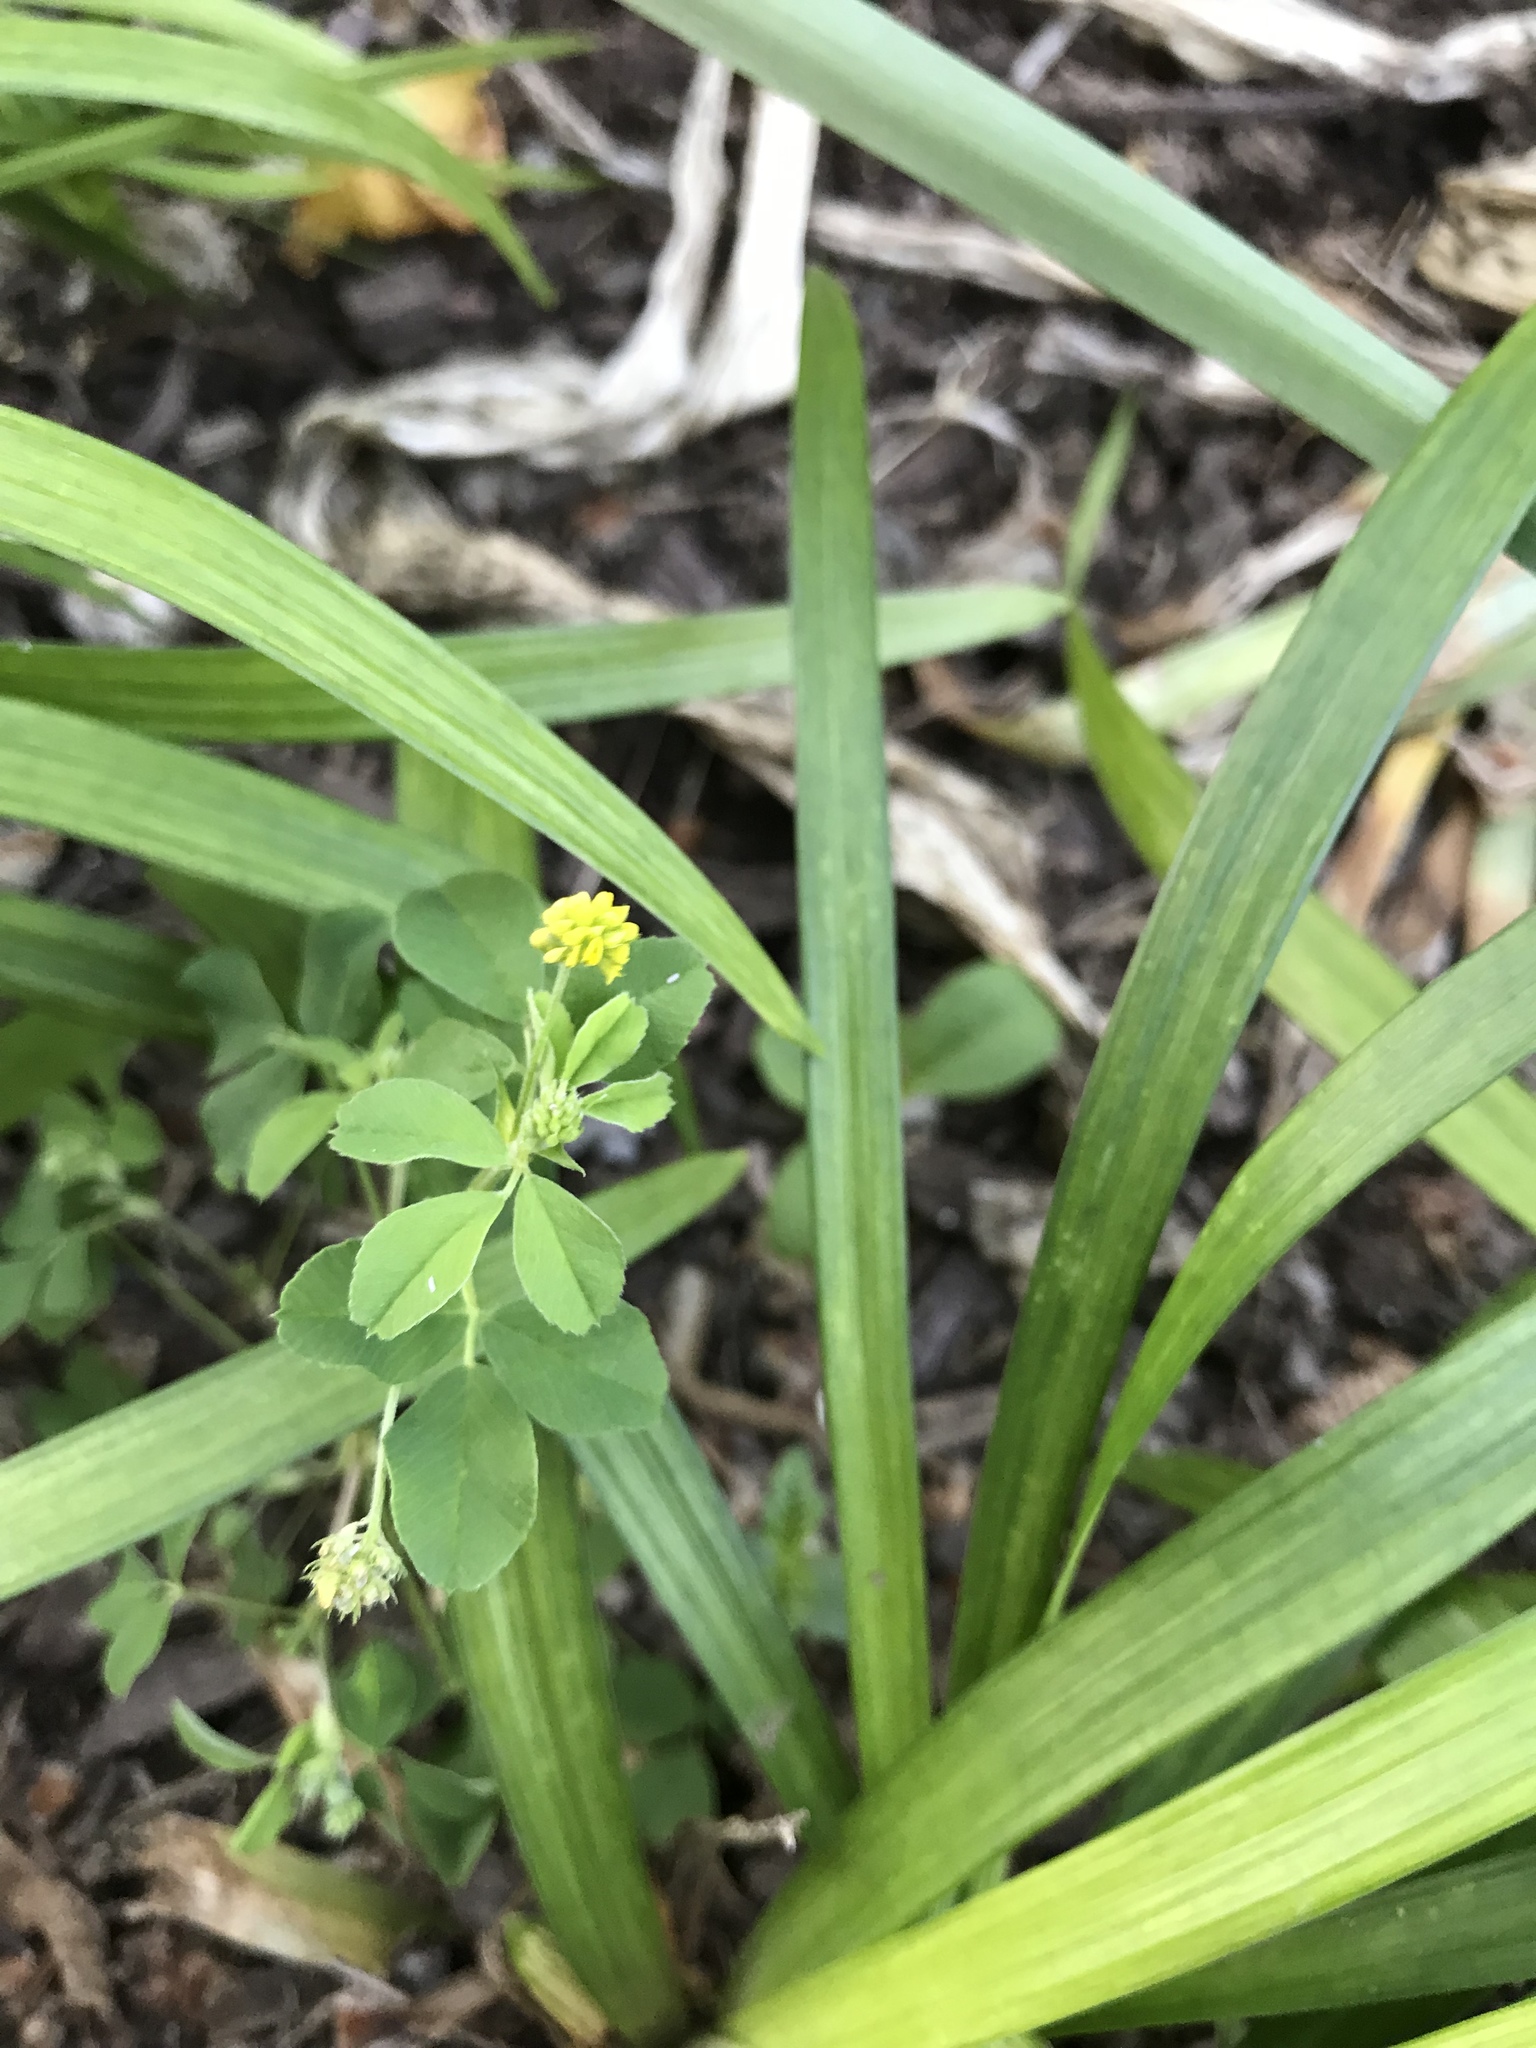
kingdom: Plantae
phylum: Tracheophyta
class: Magnoliopsida
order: Fabales
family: Fabaceae
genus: Medicago
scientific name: Medicago lupulina
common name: Black medick
